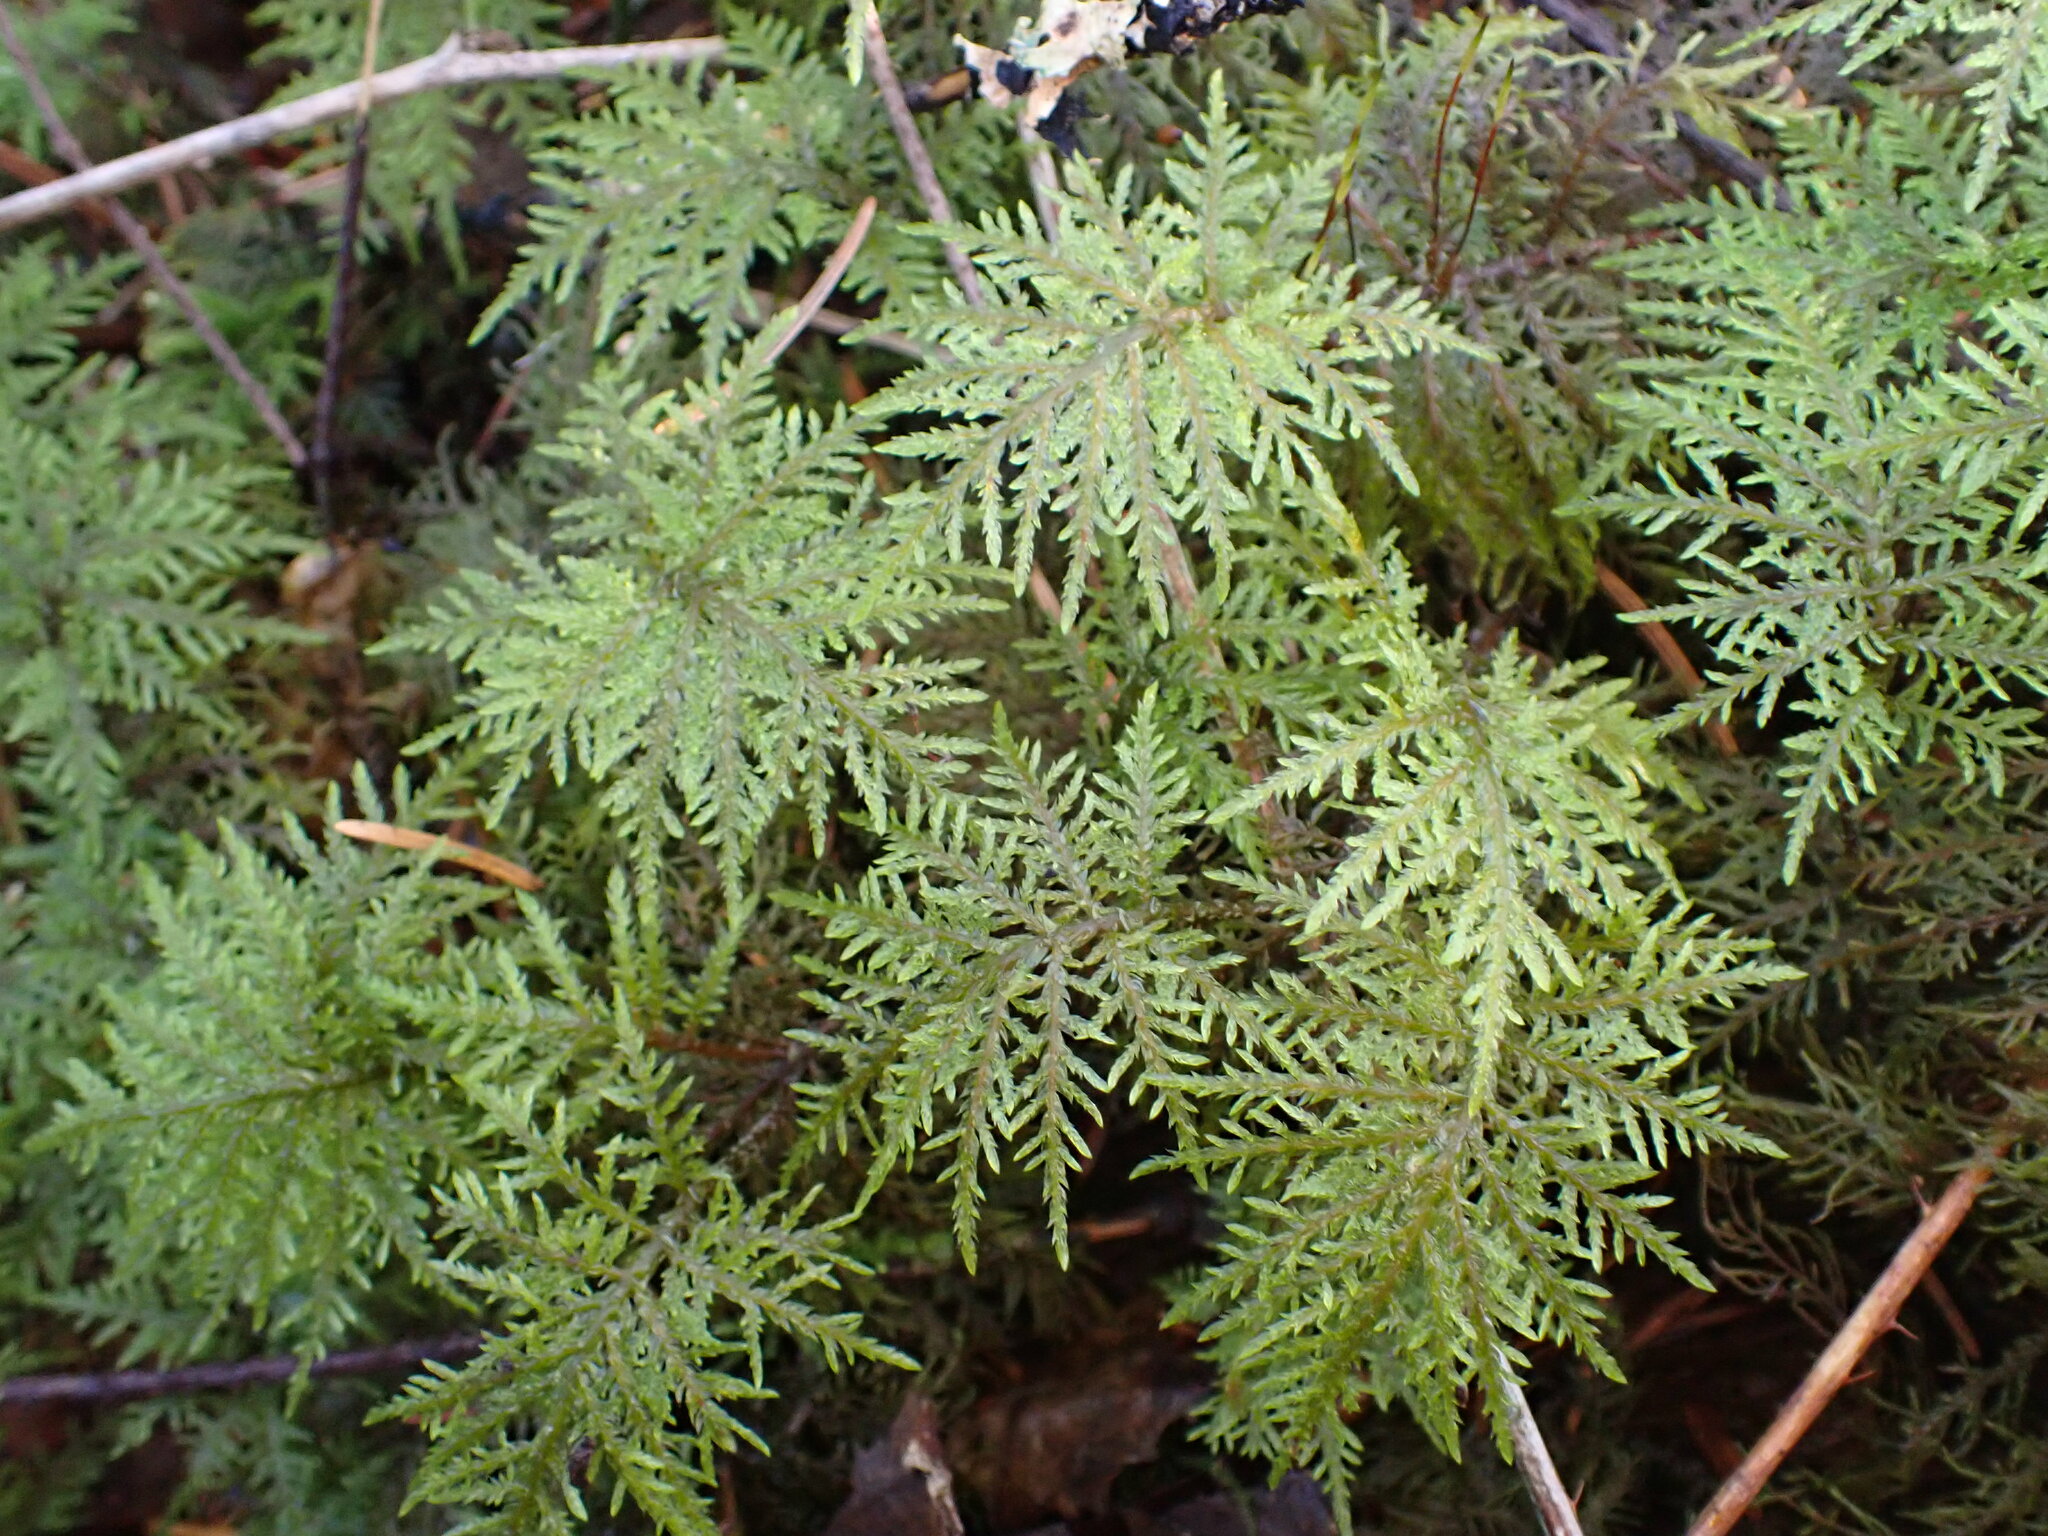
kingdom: Plantae
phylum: Bryophyta
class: Bryopsida
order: Hypnales
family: Hylocomiaceae
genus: Hylocomium
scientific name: Hylocomium splendens
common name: Stairstep moss
